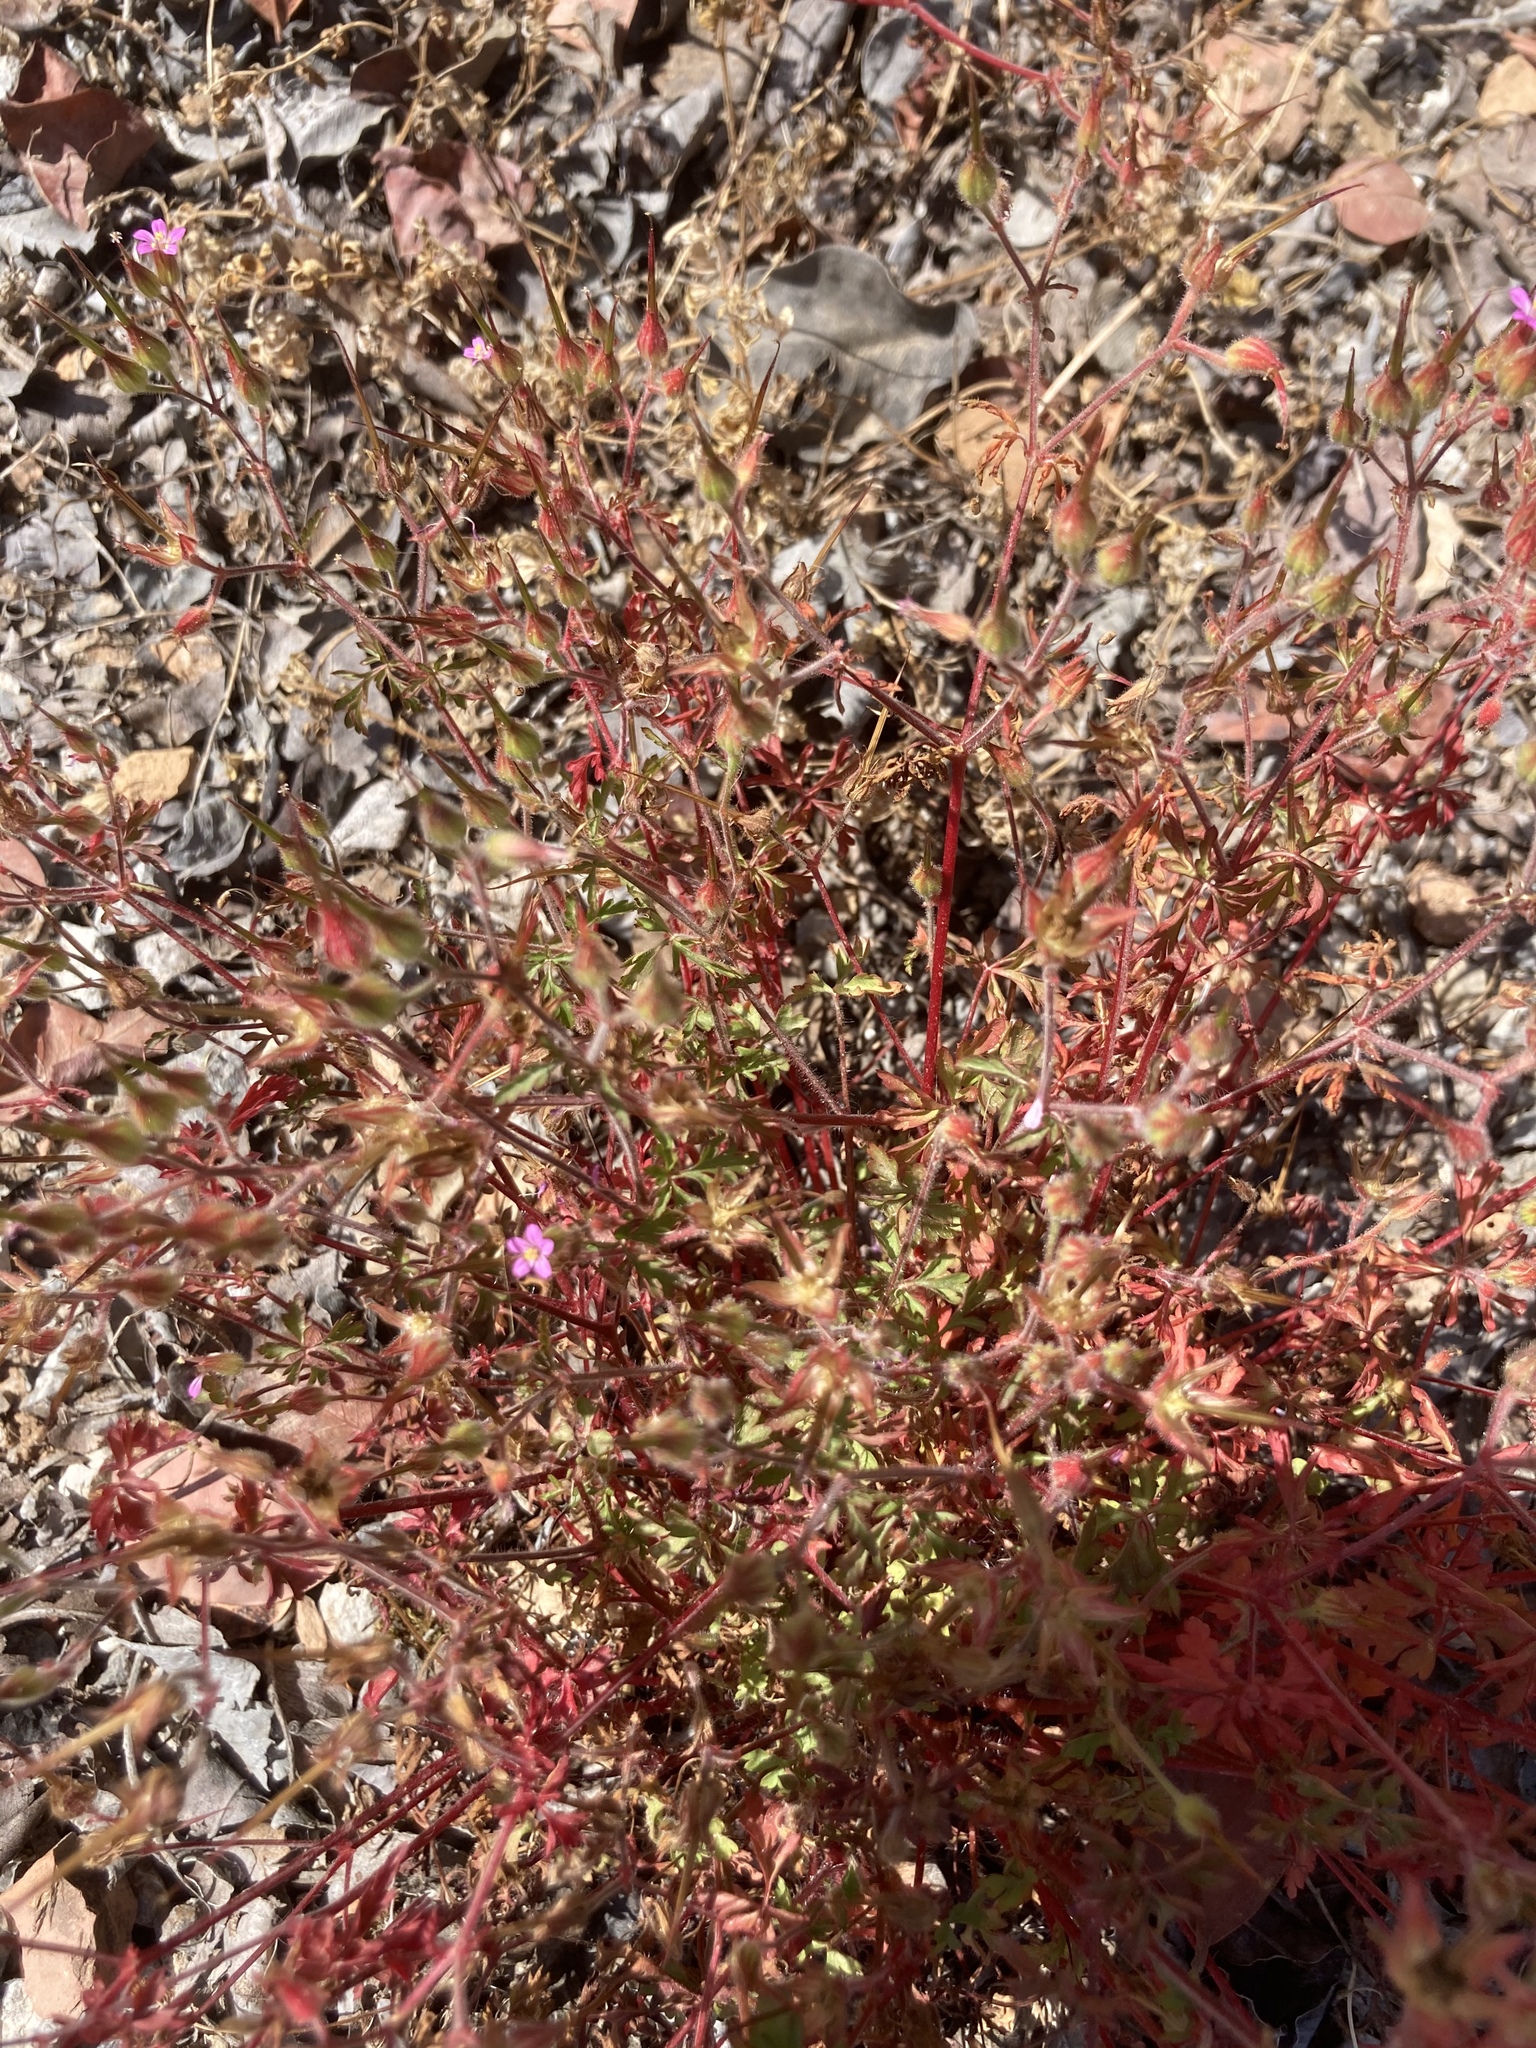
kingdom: Plantae
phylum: Tracheophyta
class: Magnoliopsida
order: Geraniales
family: Geraniaceae
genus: Geranium
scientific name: Geranium purpureum
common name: Little-robin
